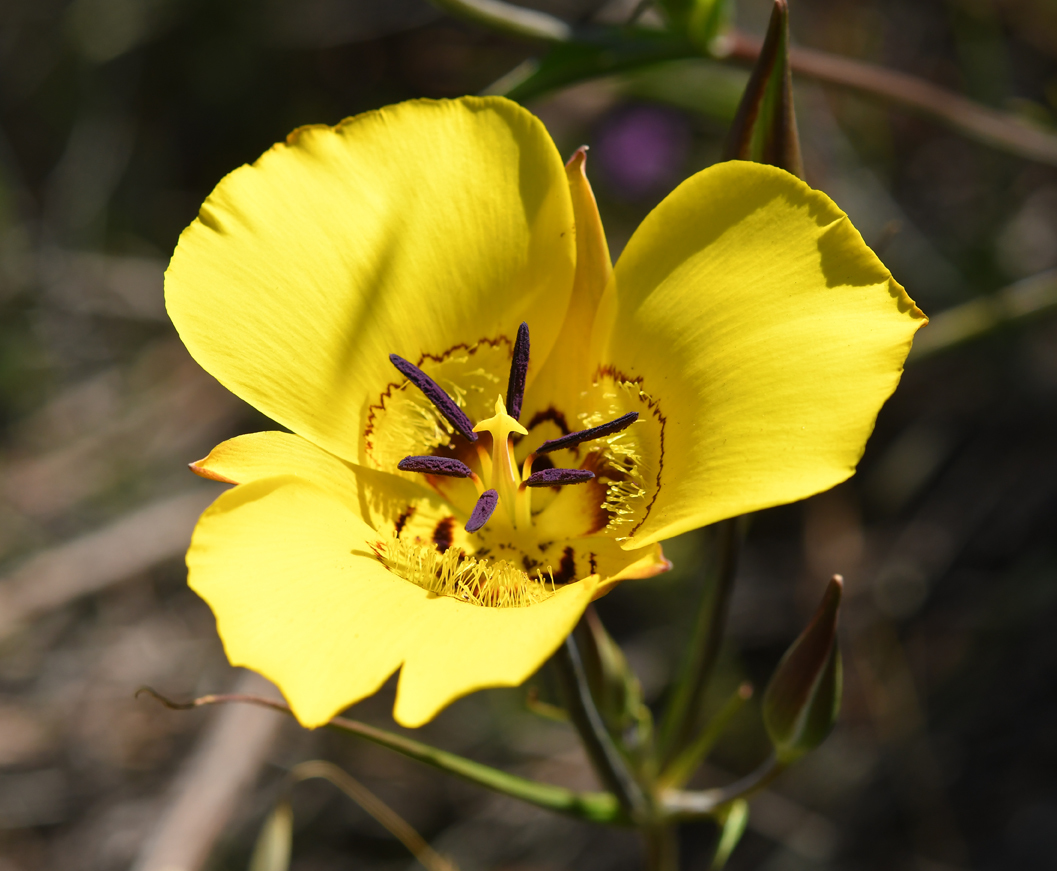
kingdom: Plantae
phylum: Tracheophyta
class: Liliopsida
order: Liliales
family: Liliaceae
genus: Calochortus
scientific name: Calochortus clavatus
